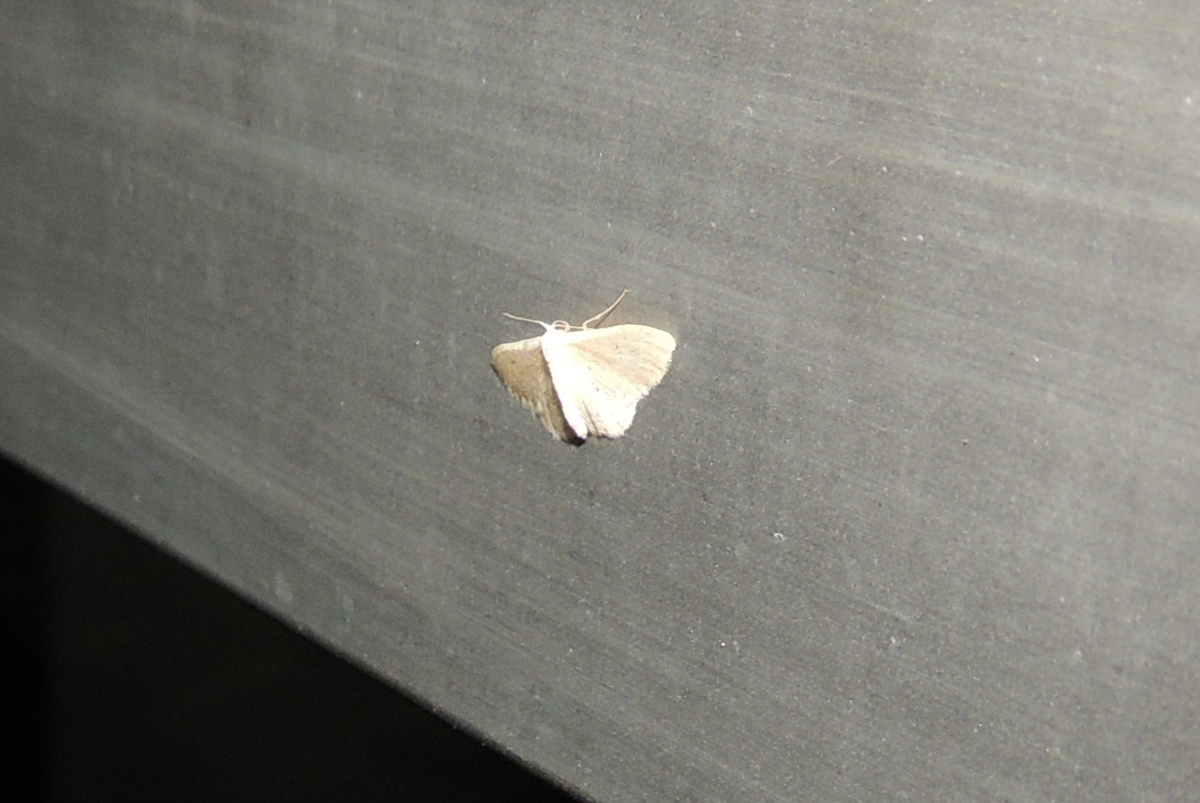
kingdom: Animalia
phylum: Arthropoda
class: Insecta
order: Lepidoptera
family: Geometridae
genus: Idaea
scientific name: Idaea distinctaria
